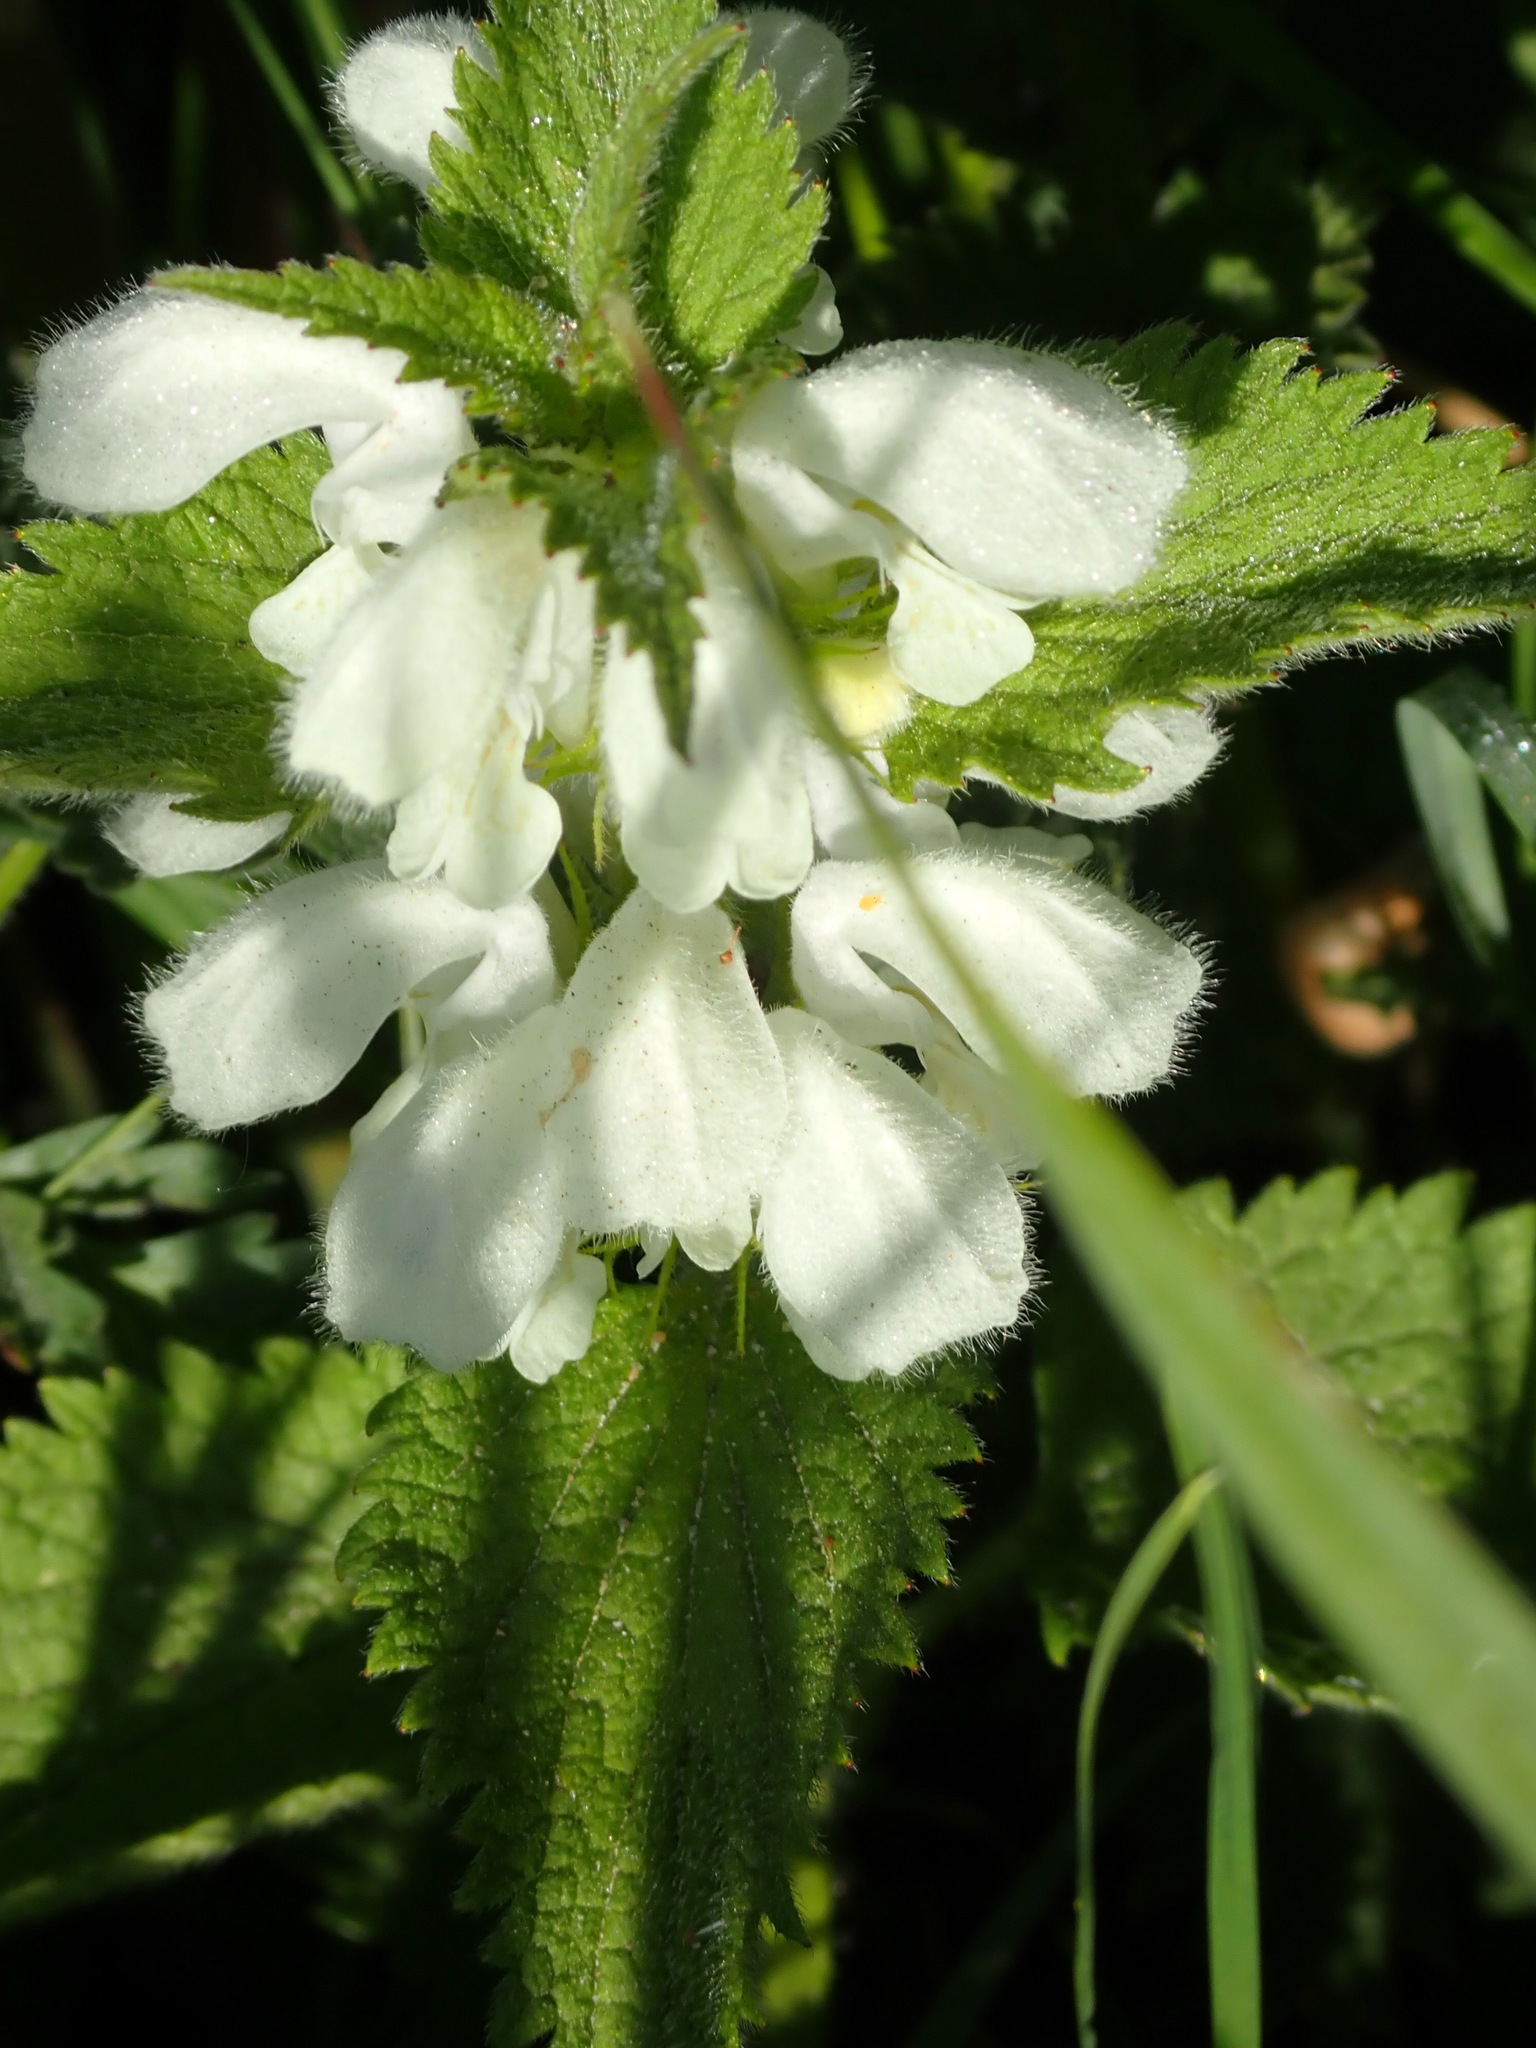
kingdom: Plantae
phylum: Tracheophyta
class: Magnoliopsida
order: Lamiales
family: Lamiaceae
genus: Lamium
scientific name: Lamium album
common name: White dead-nettle
